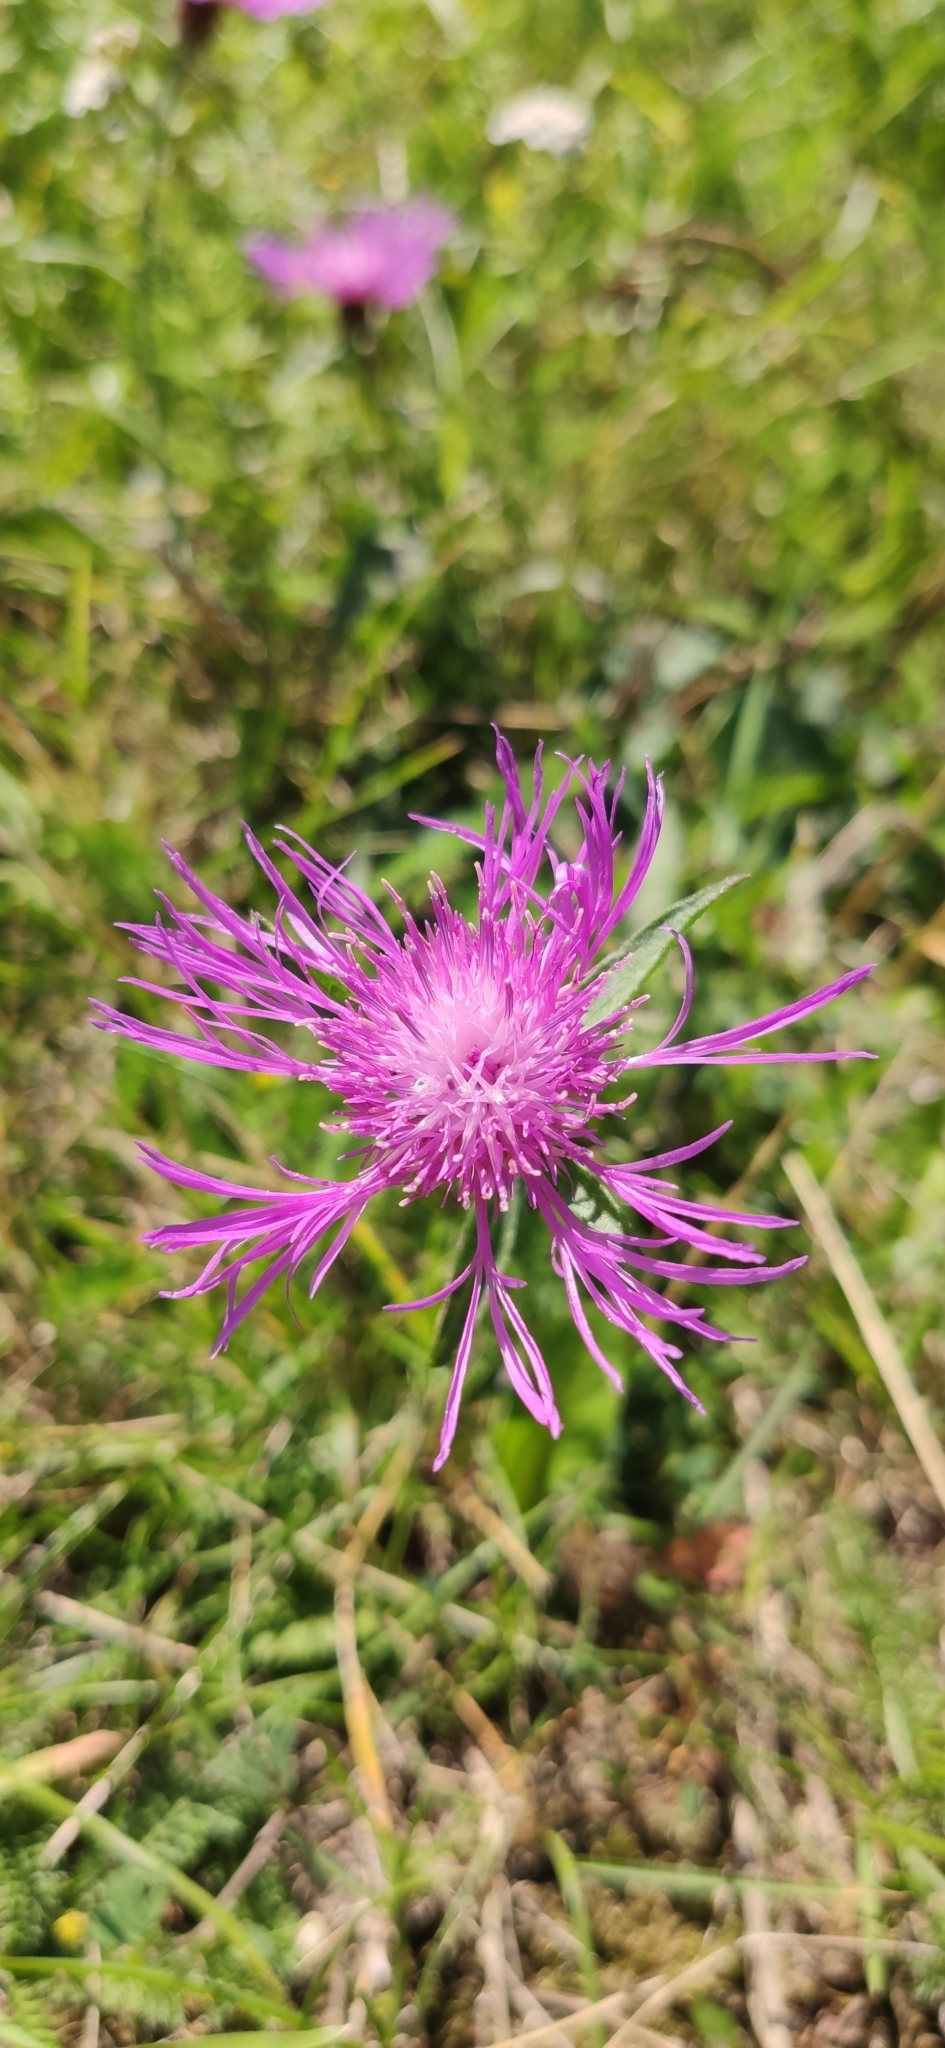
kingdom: Plantae
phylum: Tracheophyta
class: Magnoliopsida
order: Asterales
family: Asteraceae
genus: Centaurea
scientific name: Centaurea jacea
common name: Brown knapweed
